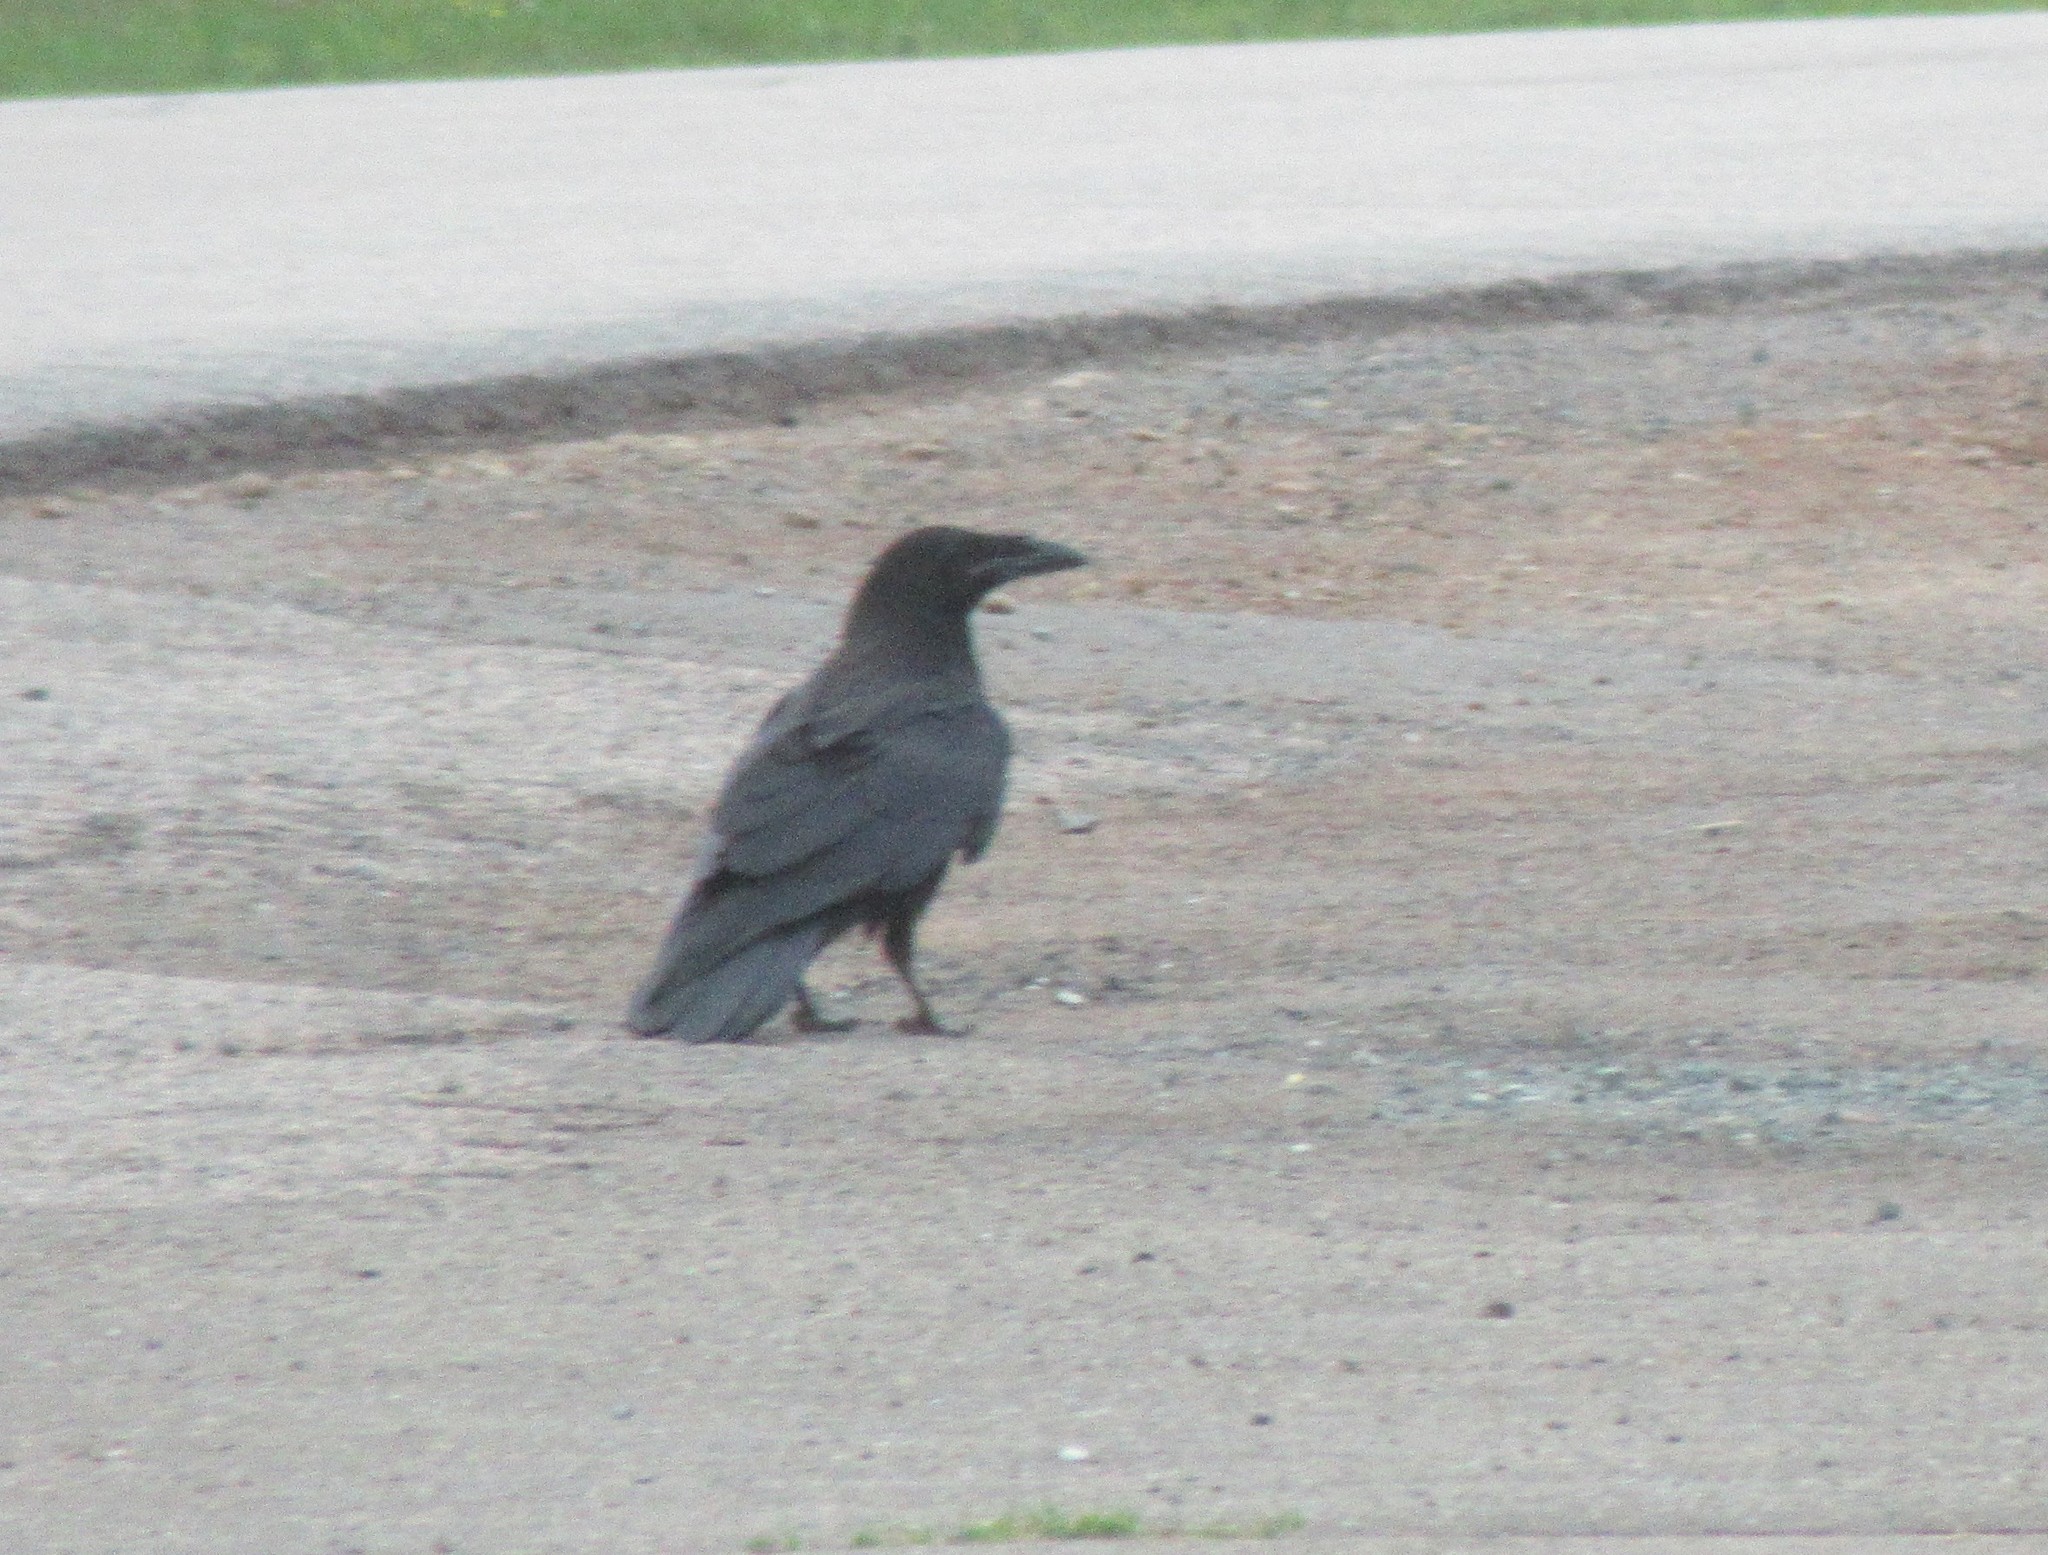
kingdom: Animalia
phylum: Chordata
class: Aves
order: Passeriformes
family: Corvidae
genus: Corvus
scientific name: Corvus corax
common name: Common raven
